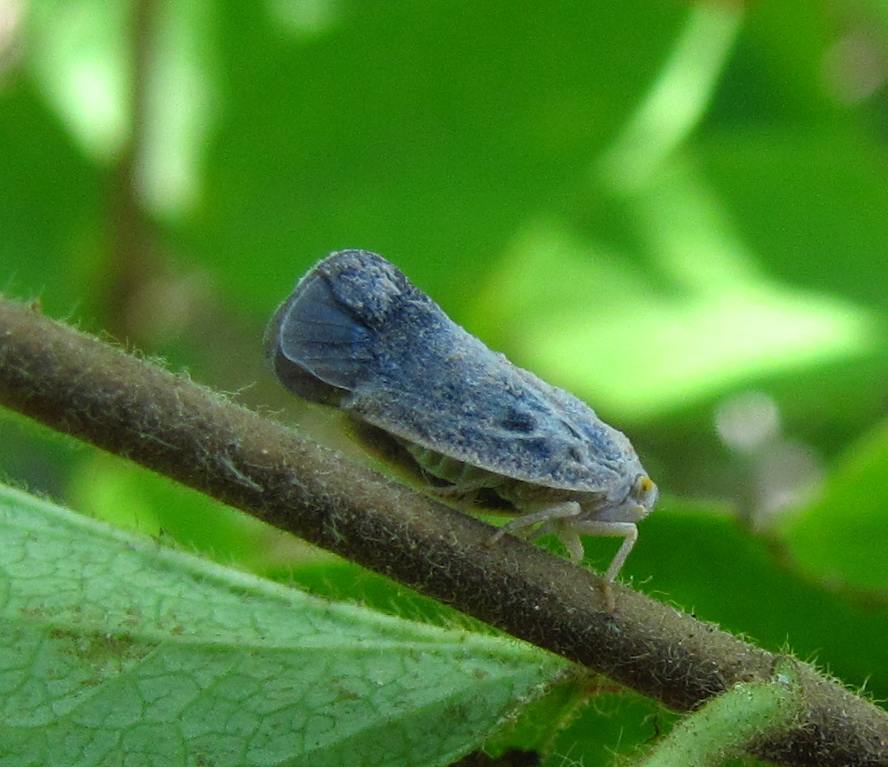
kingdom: Animalia
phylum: Arthropoda
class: Insecta
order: Hemiptera
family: Flatidae
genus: Metcalfa
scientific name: Metcalfa pruinosa
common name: Citrus flatid planthopper
